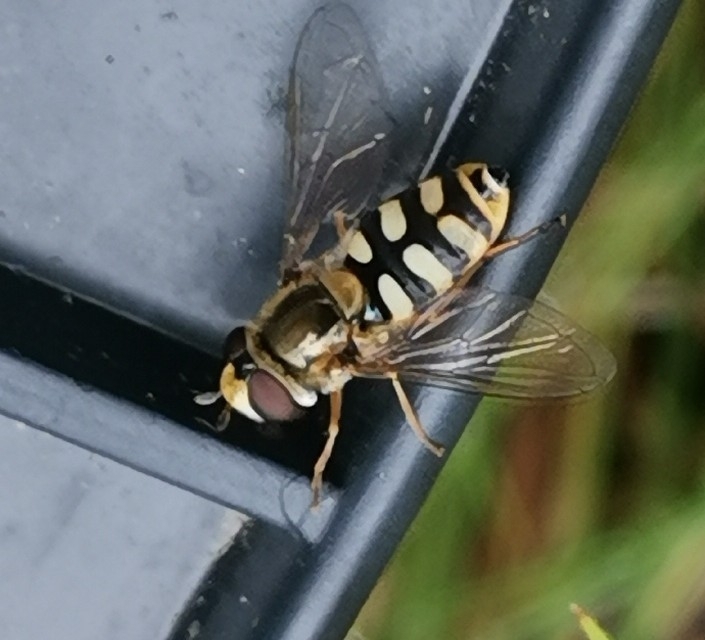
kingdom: Animalia
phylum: Arthropoda
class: Insecta
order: Diptera
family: Syrphidae
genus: Eupeodes
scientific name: Eupeodes corollae
